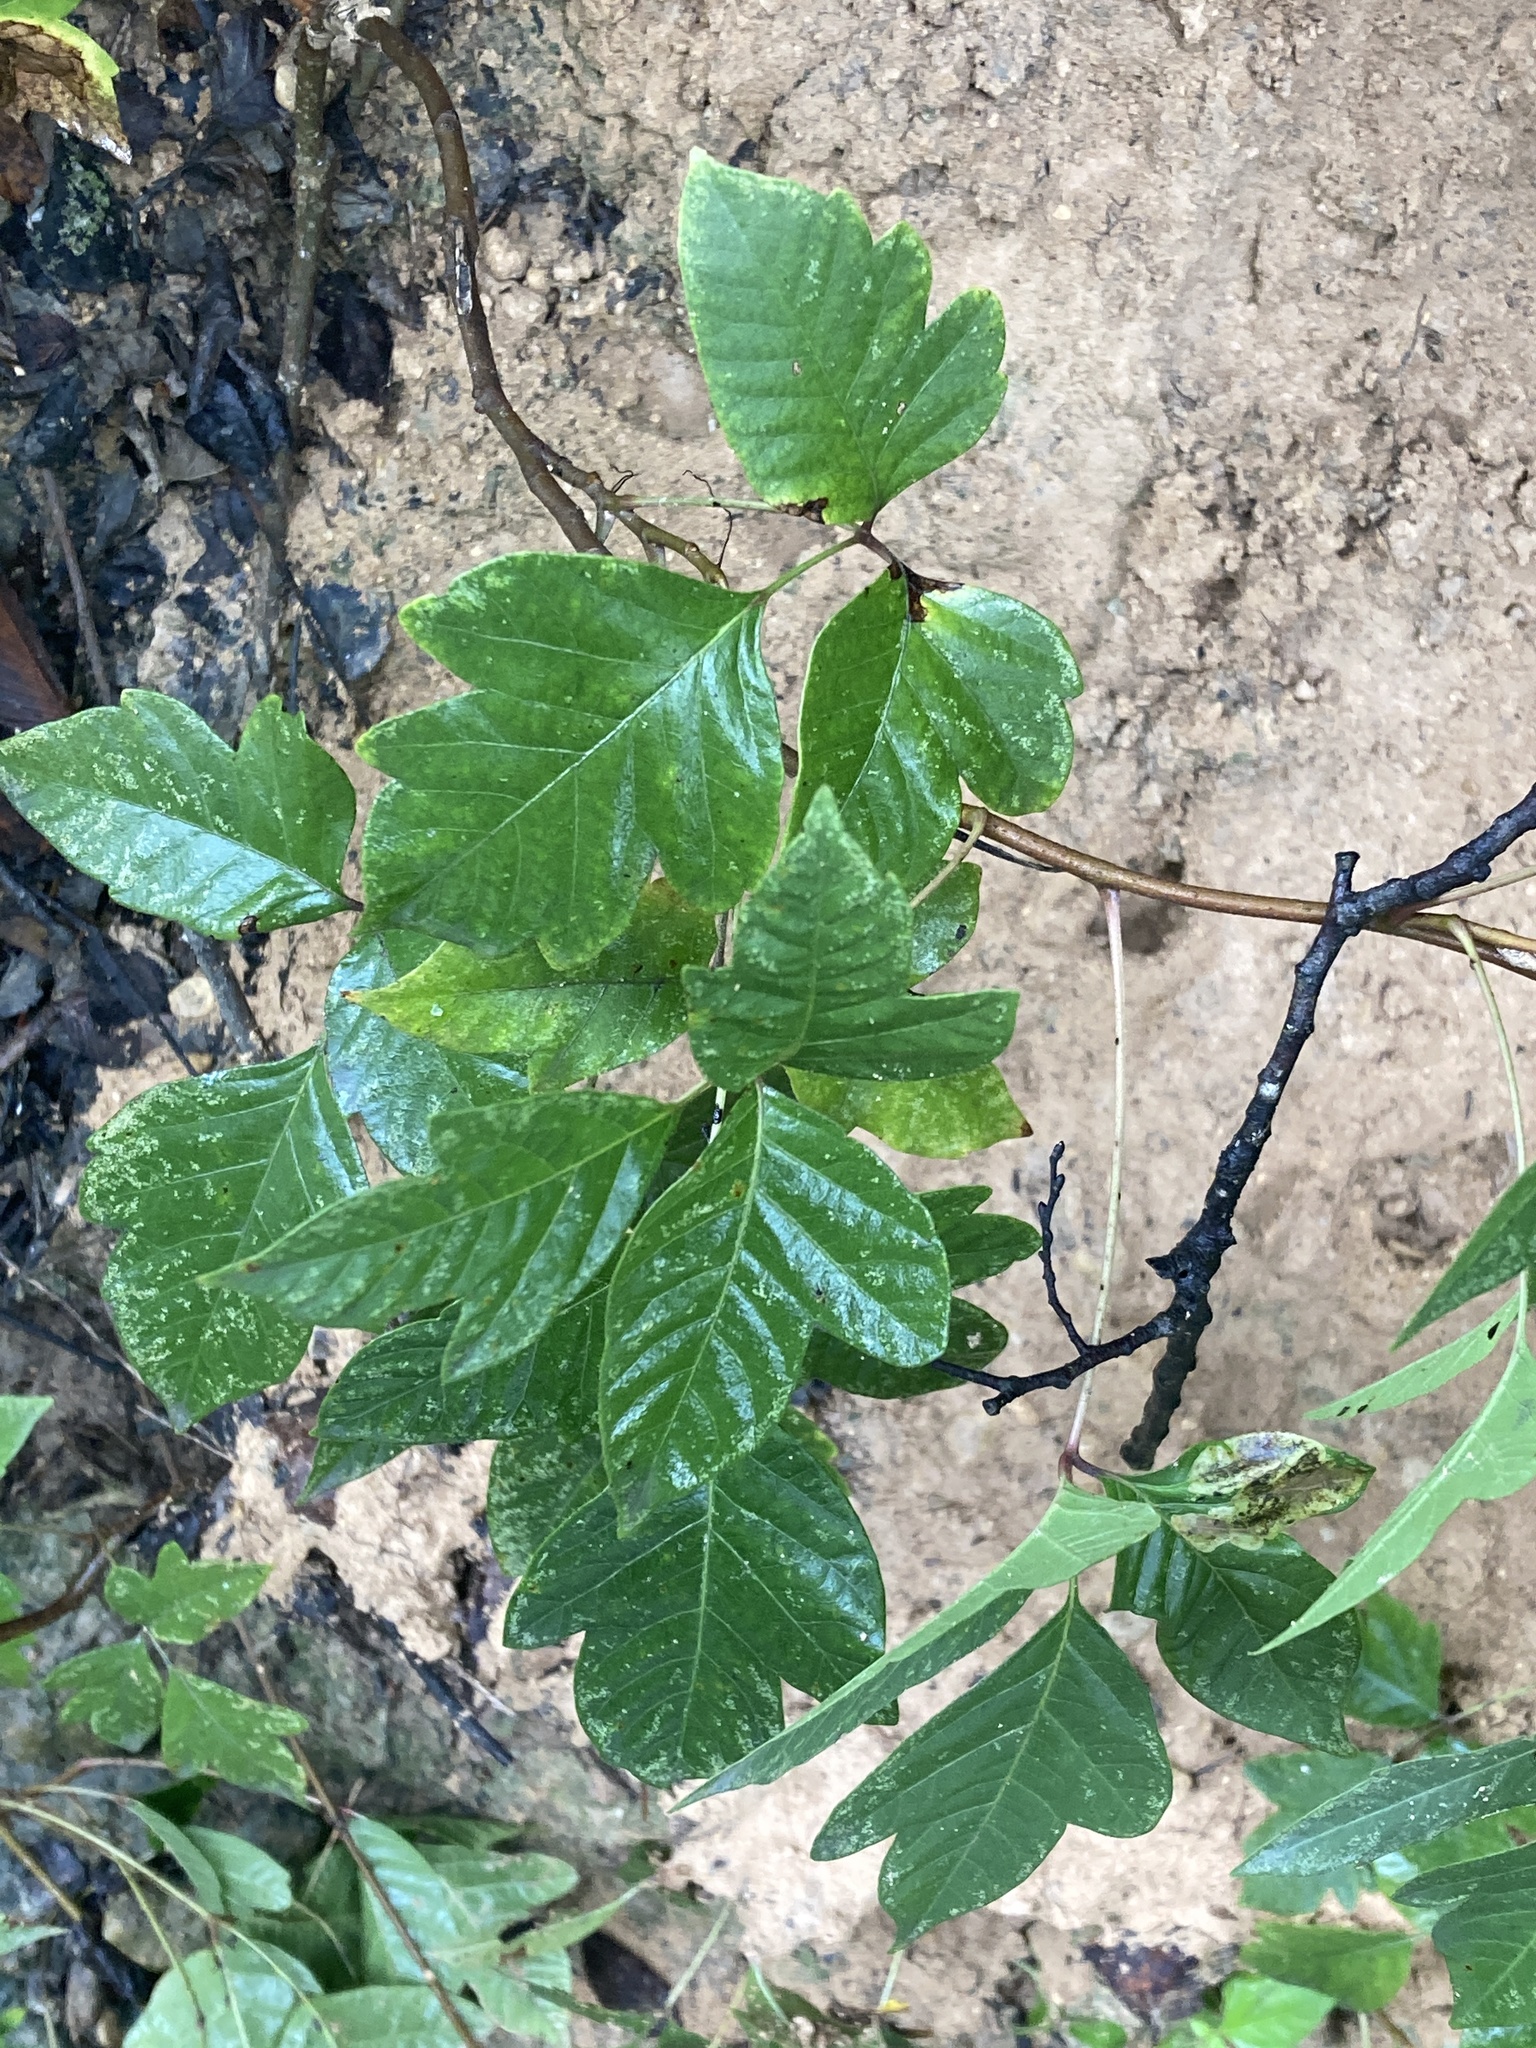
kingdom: Plantae
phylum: Tracheophyta
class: Magnoliopsida
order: Sapindales
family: Anacardiaceae
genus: Toxicodendron
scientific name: Toxicodendron radicans
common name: Poison ivy
